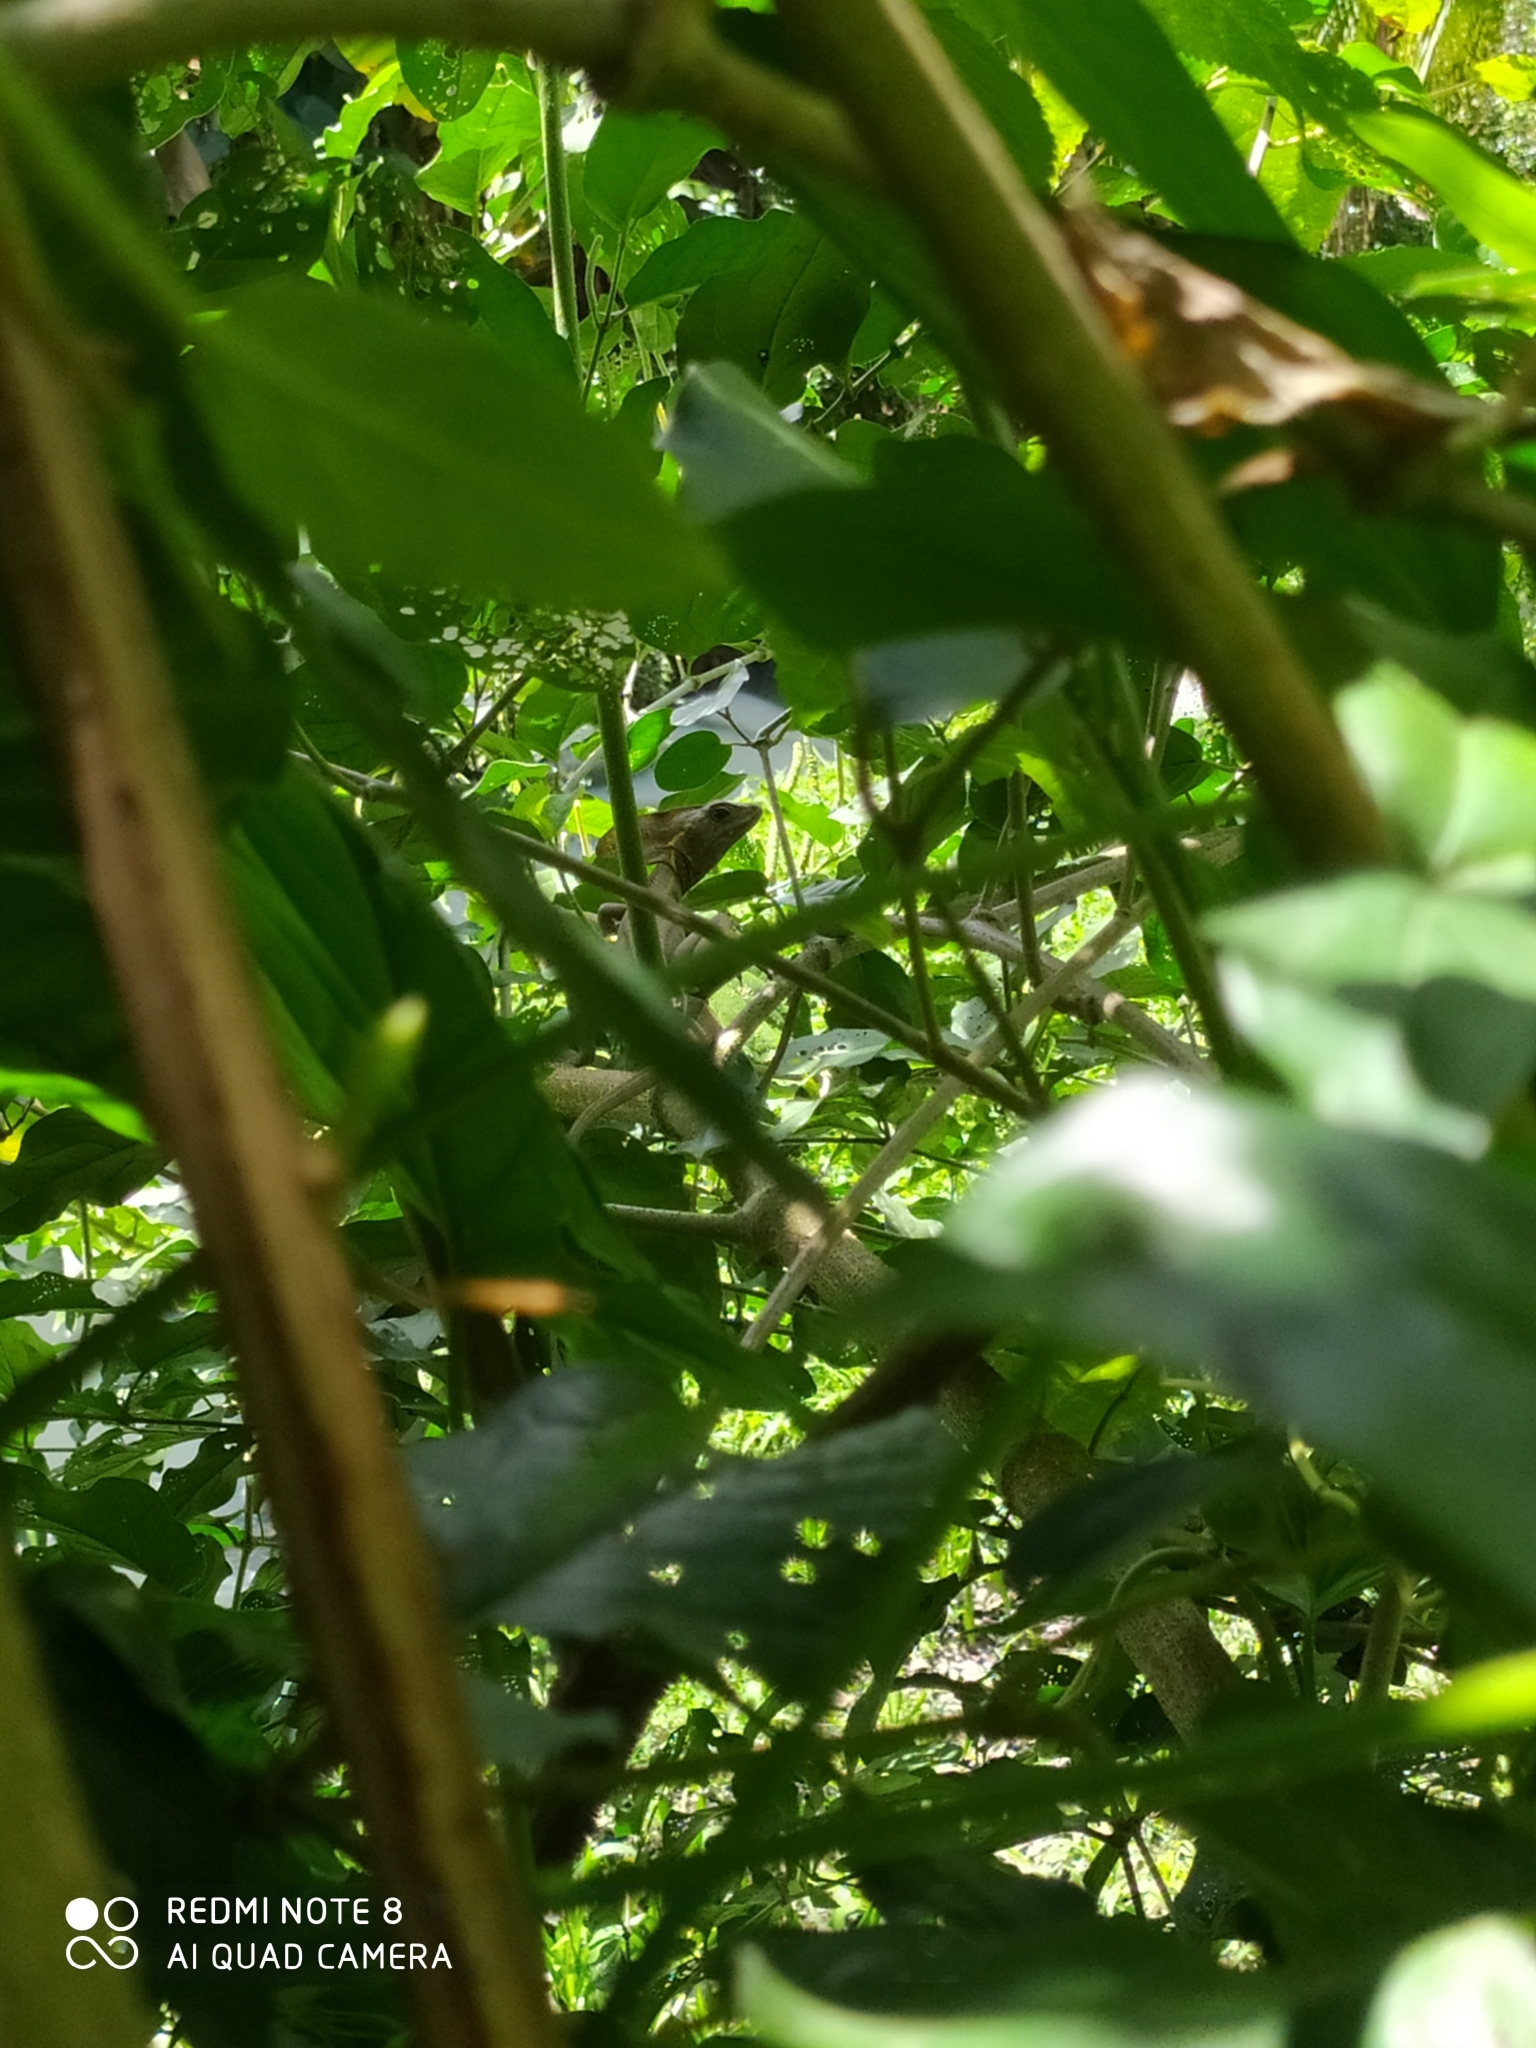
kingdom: Animalia
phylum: Chordata
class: Squamata
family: Corytophanidae
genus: Basiliscus
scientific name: Basiliscus vittatus
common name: Brown basilisk
